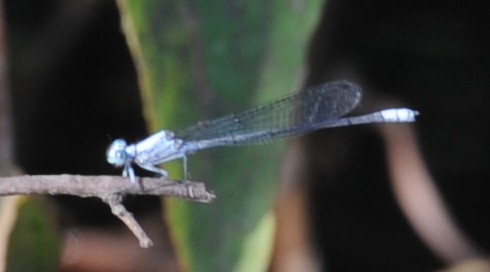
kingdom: Animalia
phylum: Arthropoda
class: Insecta
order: Odonata
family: Platycnemididae
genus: Mesocnemis
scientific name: Mesocnemis singularis
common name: Common riverjack
